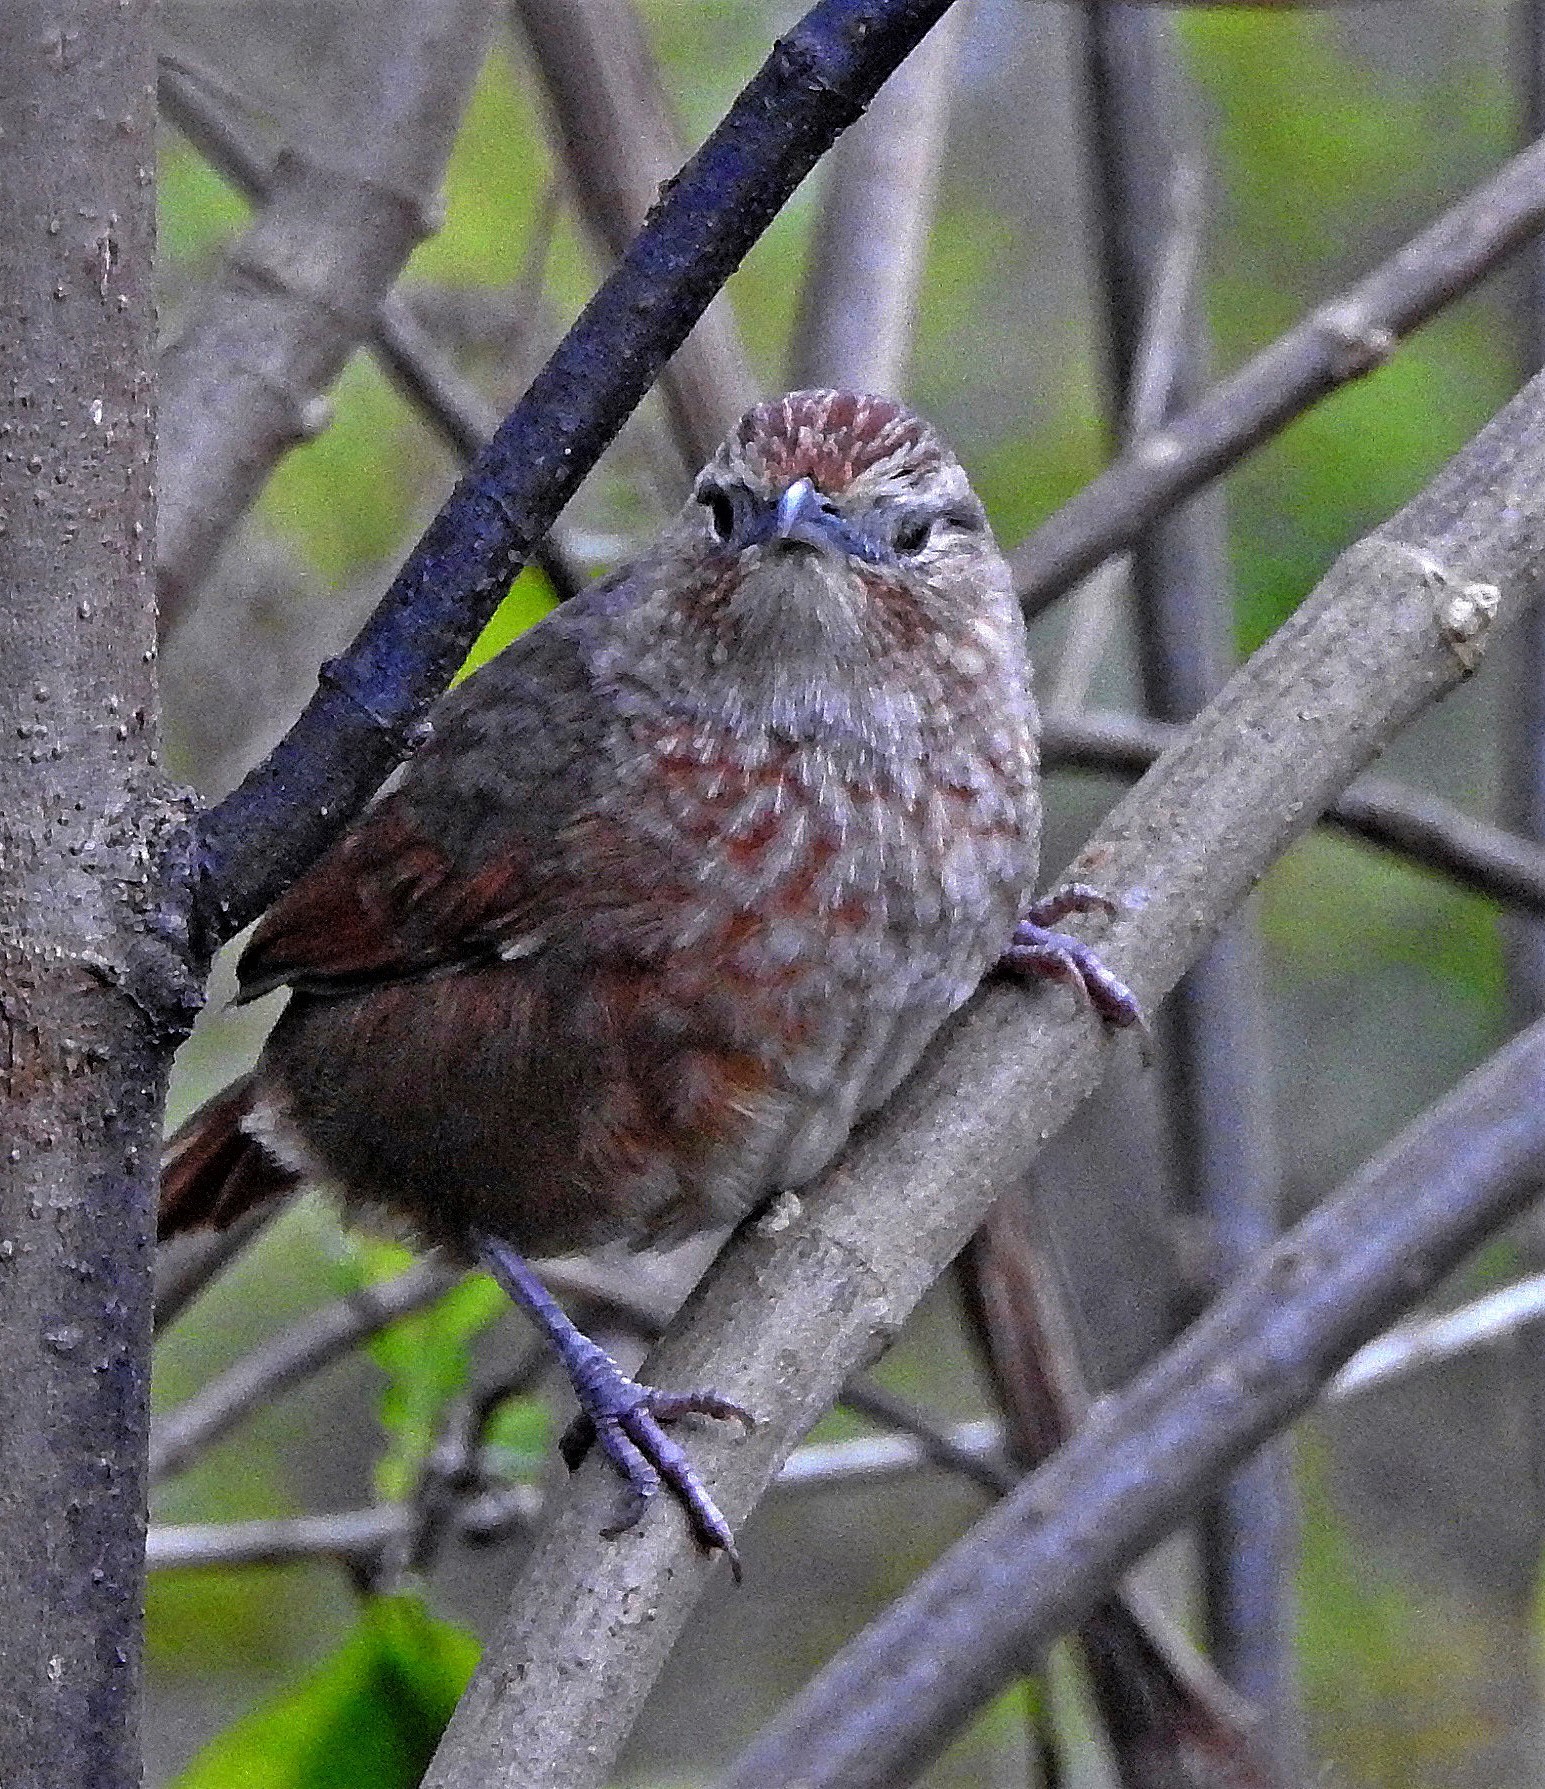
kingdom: Animalia
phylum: Chordata
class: Aves
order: Passeriformes
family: Furnariidae
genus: Phacellodomus
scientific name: Phacellodomus maculipectus
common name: Spot-breasted thornbird
